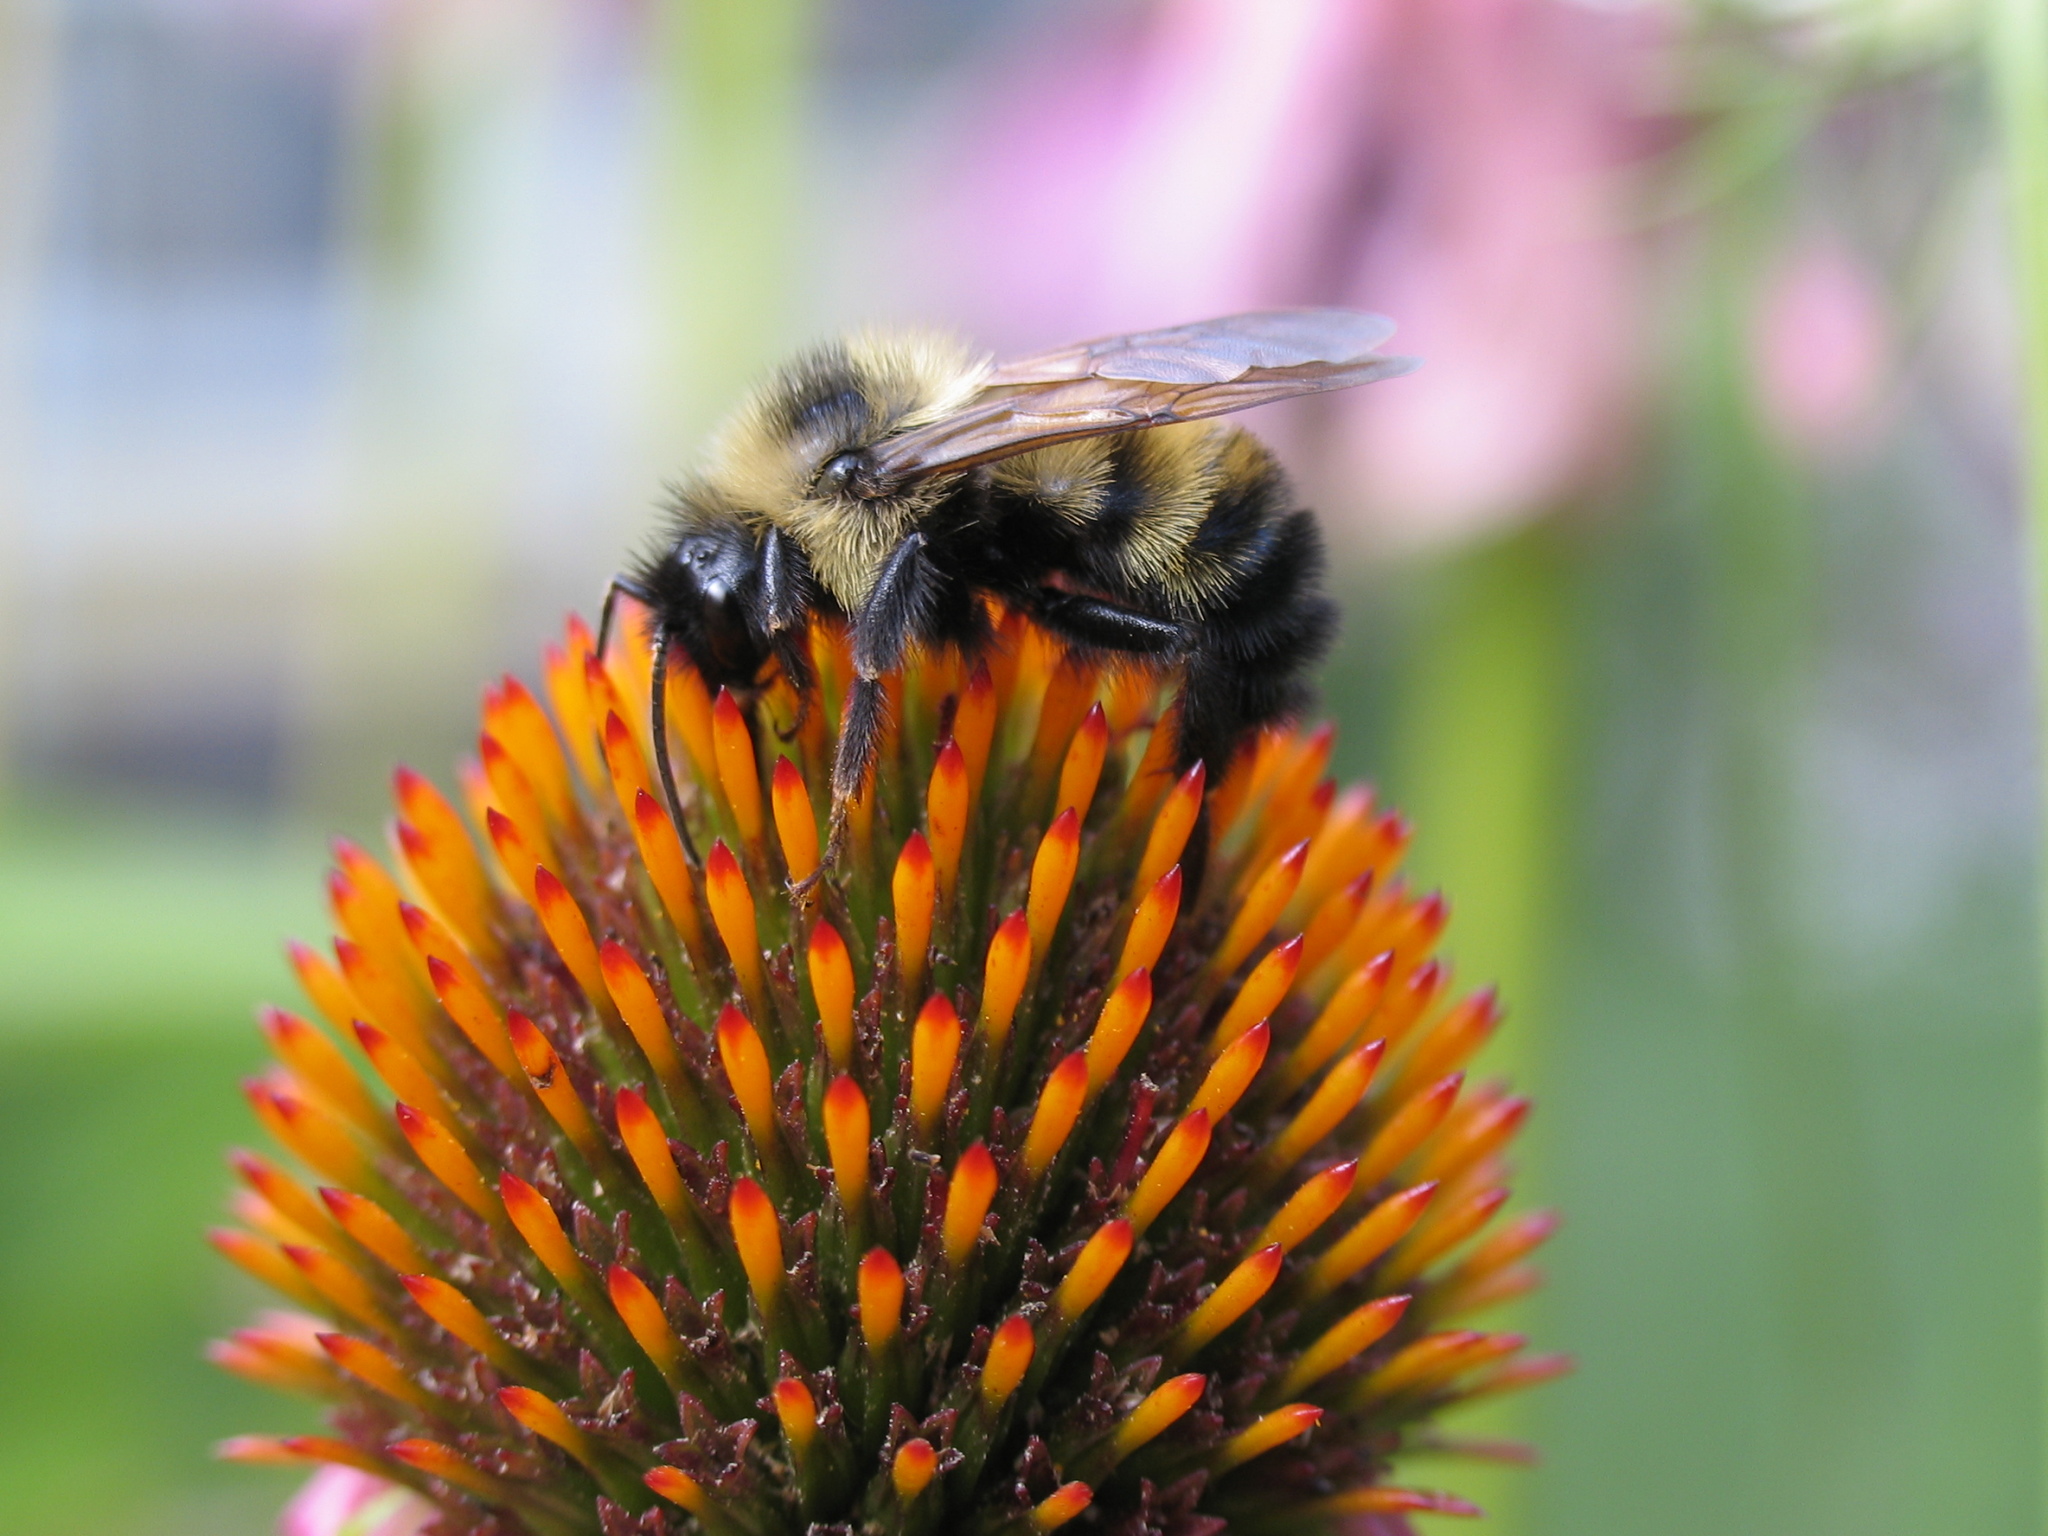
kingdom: Animalia
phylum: Arthropoda
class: Insecta
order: Hymenoptera
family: Apidae
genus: Bombus
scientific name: Bombus citrinus
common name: Lemon cuckoo bumble bee
